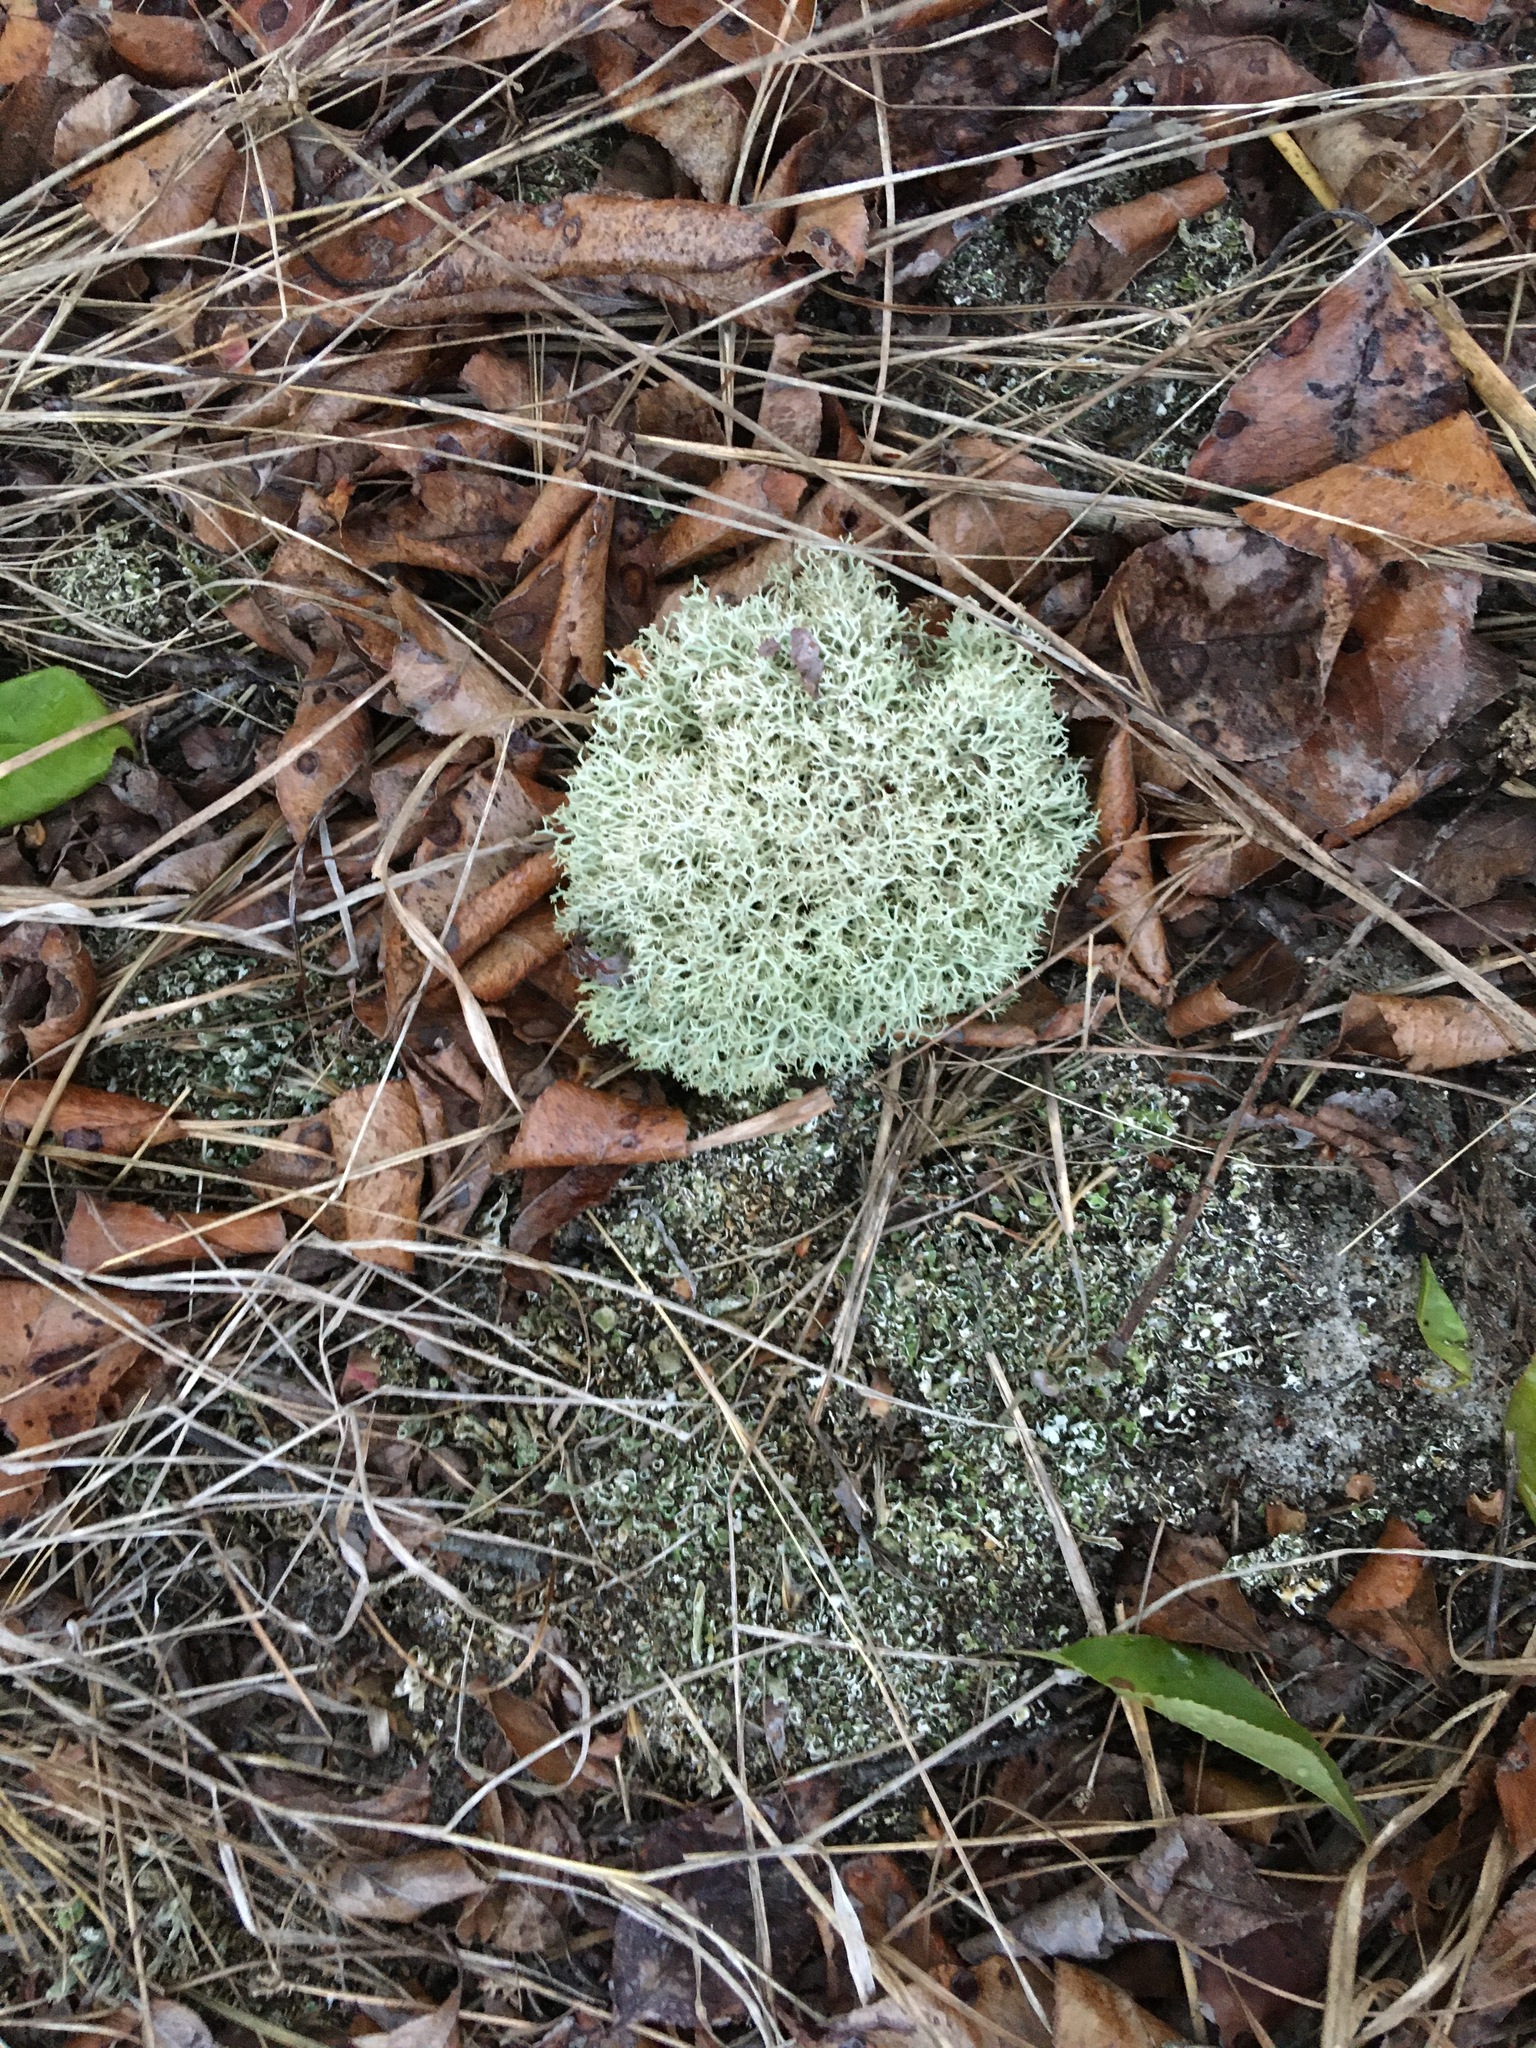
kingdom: Fungi
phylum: Ascomycota
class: Lecanoromycetes
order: Lecanorales
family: Cladoniaceae
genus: Cladonia
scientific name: Cladonia subtenuis
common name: Dixie reindeer lichen
